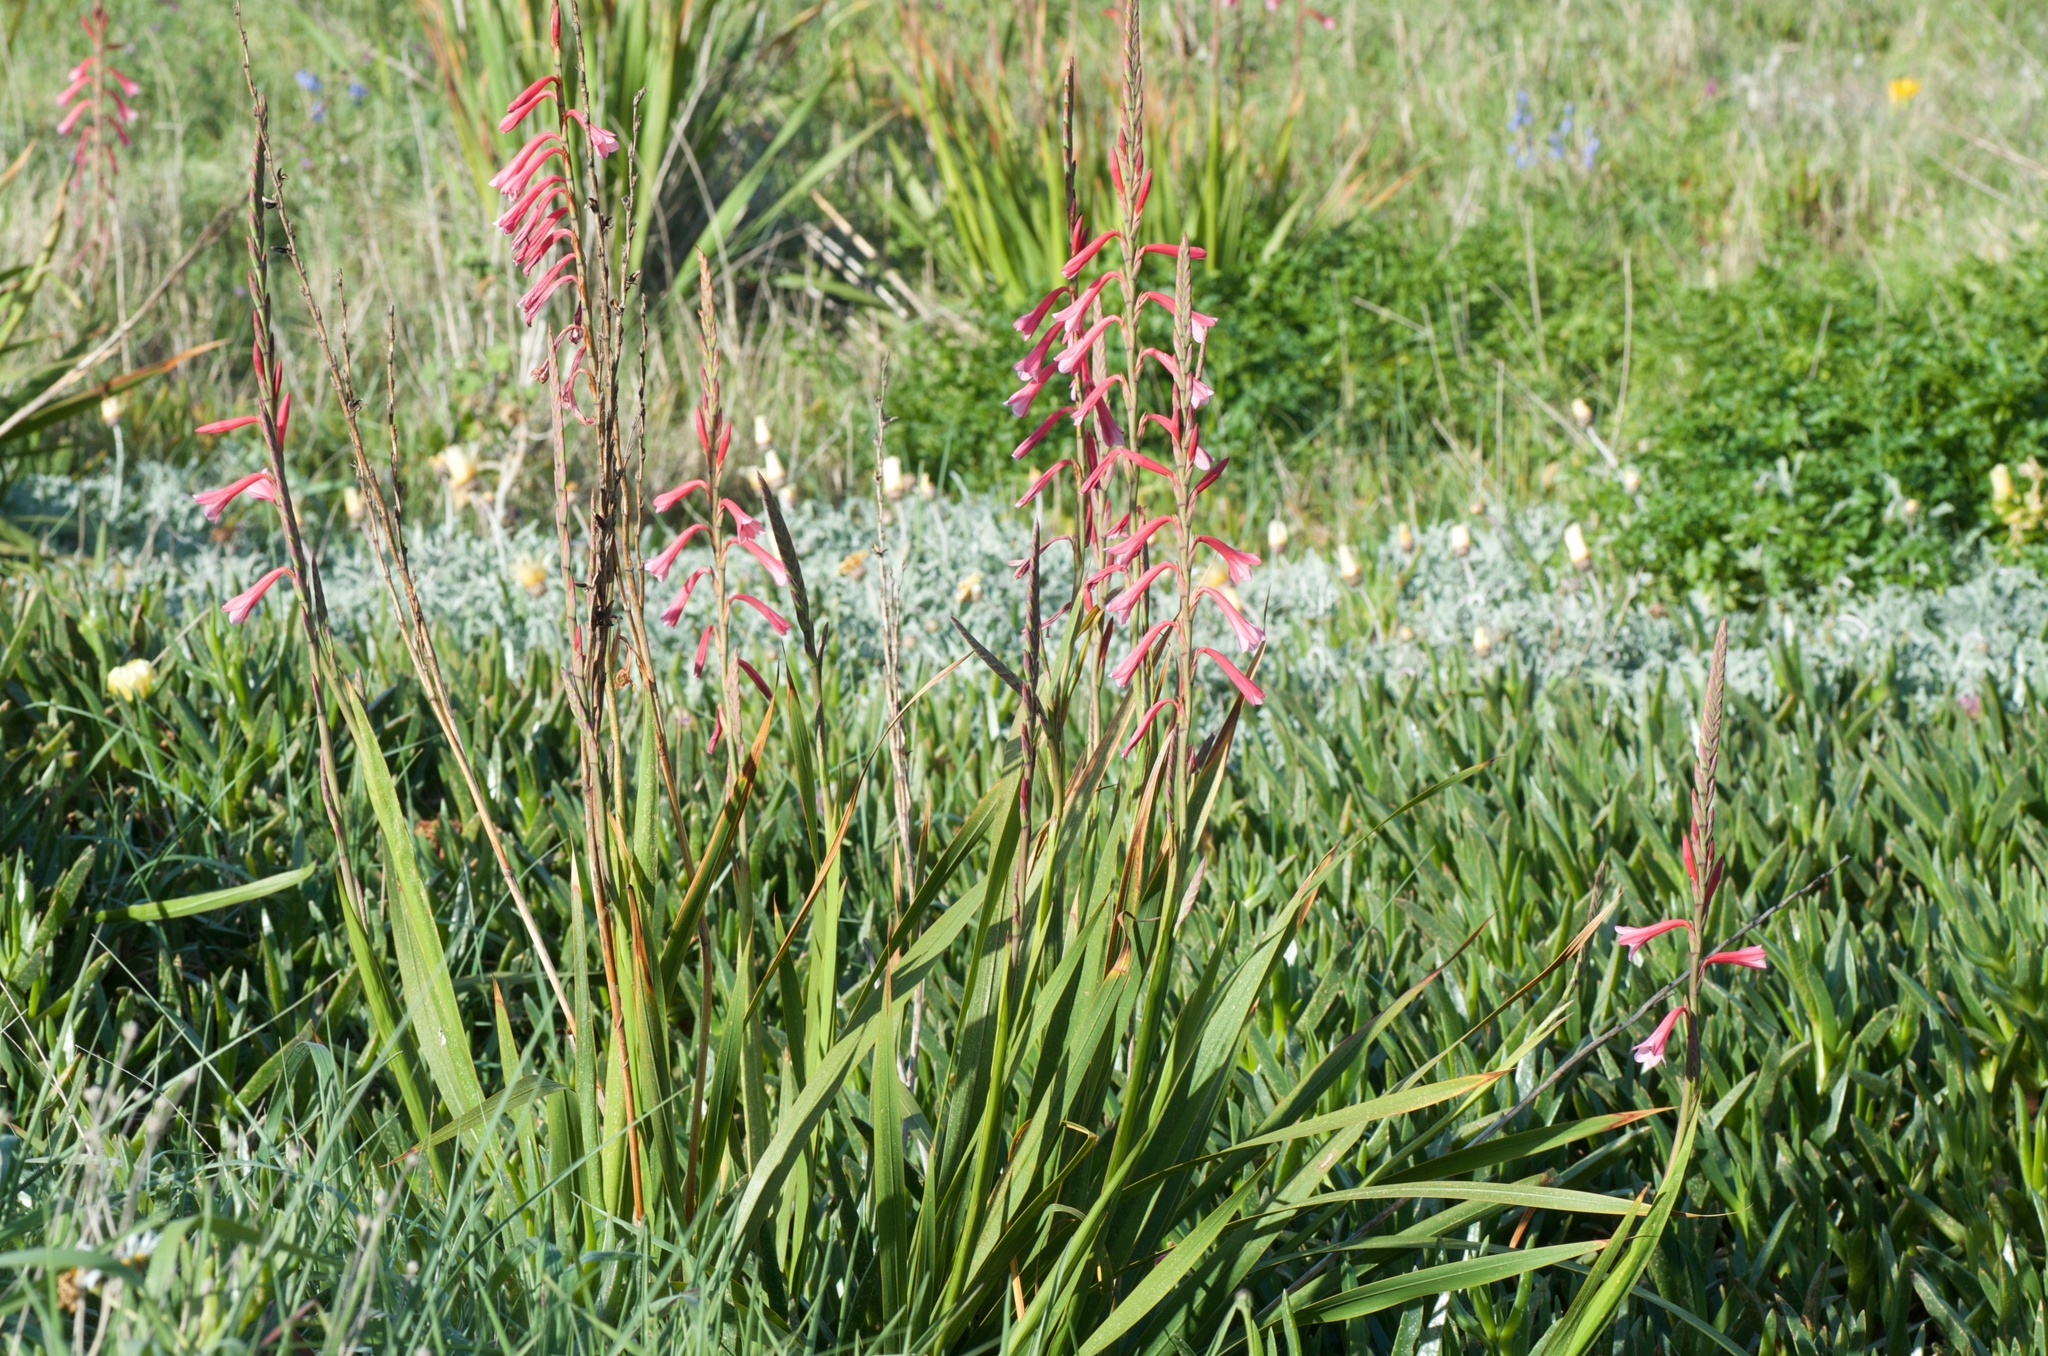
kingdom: Plantae
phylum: Tracheophyta
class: Liliopsida
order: Asparagales
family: Iridaceae
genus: Watsonia
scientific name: Watsonia meriana
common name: Bulbil bugle-lily
